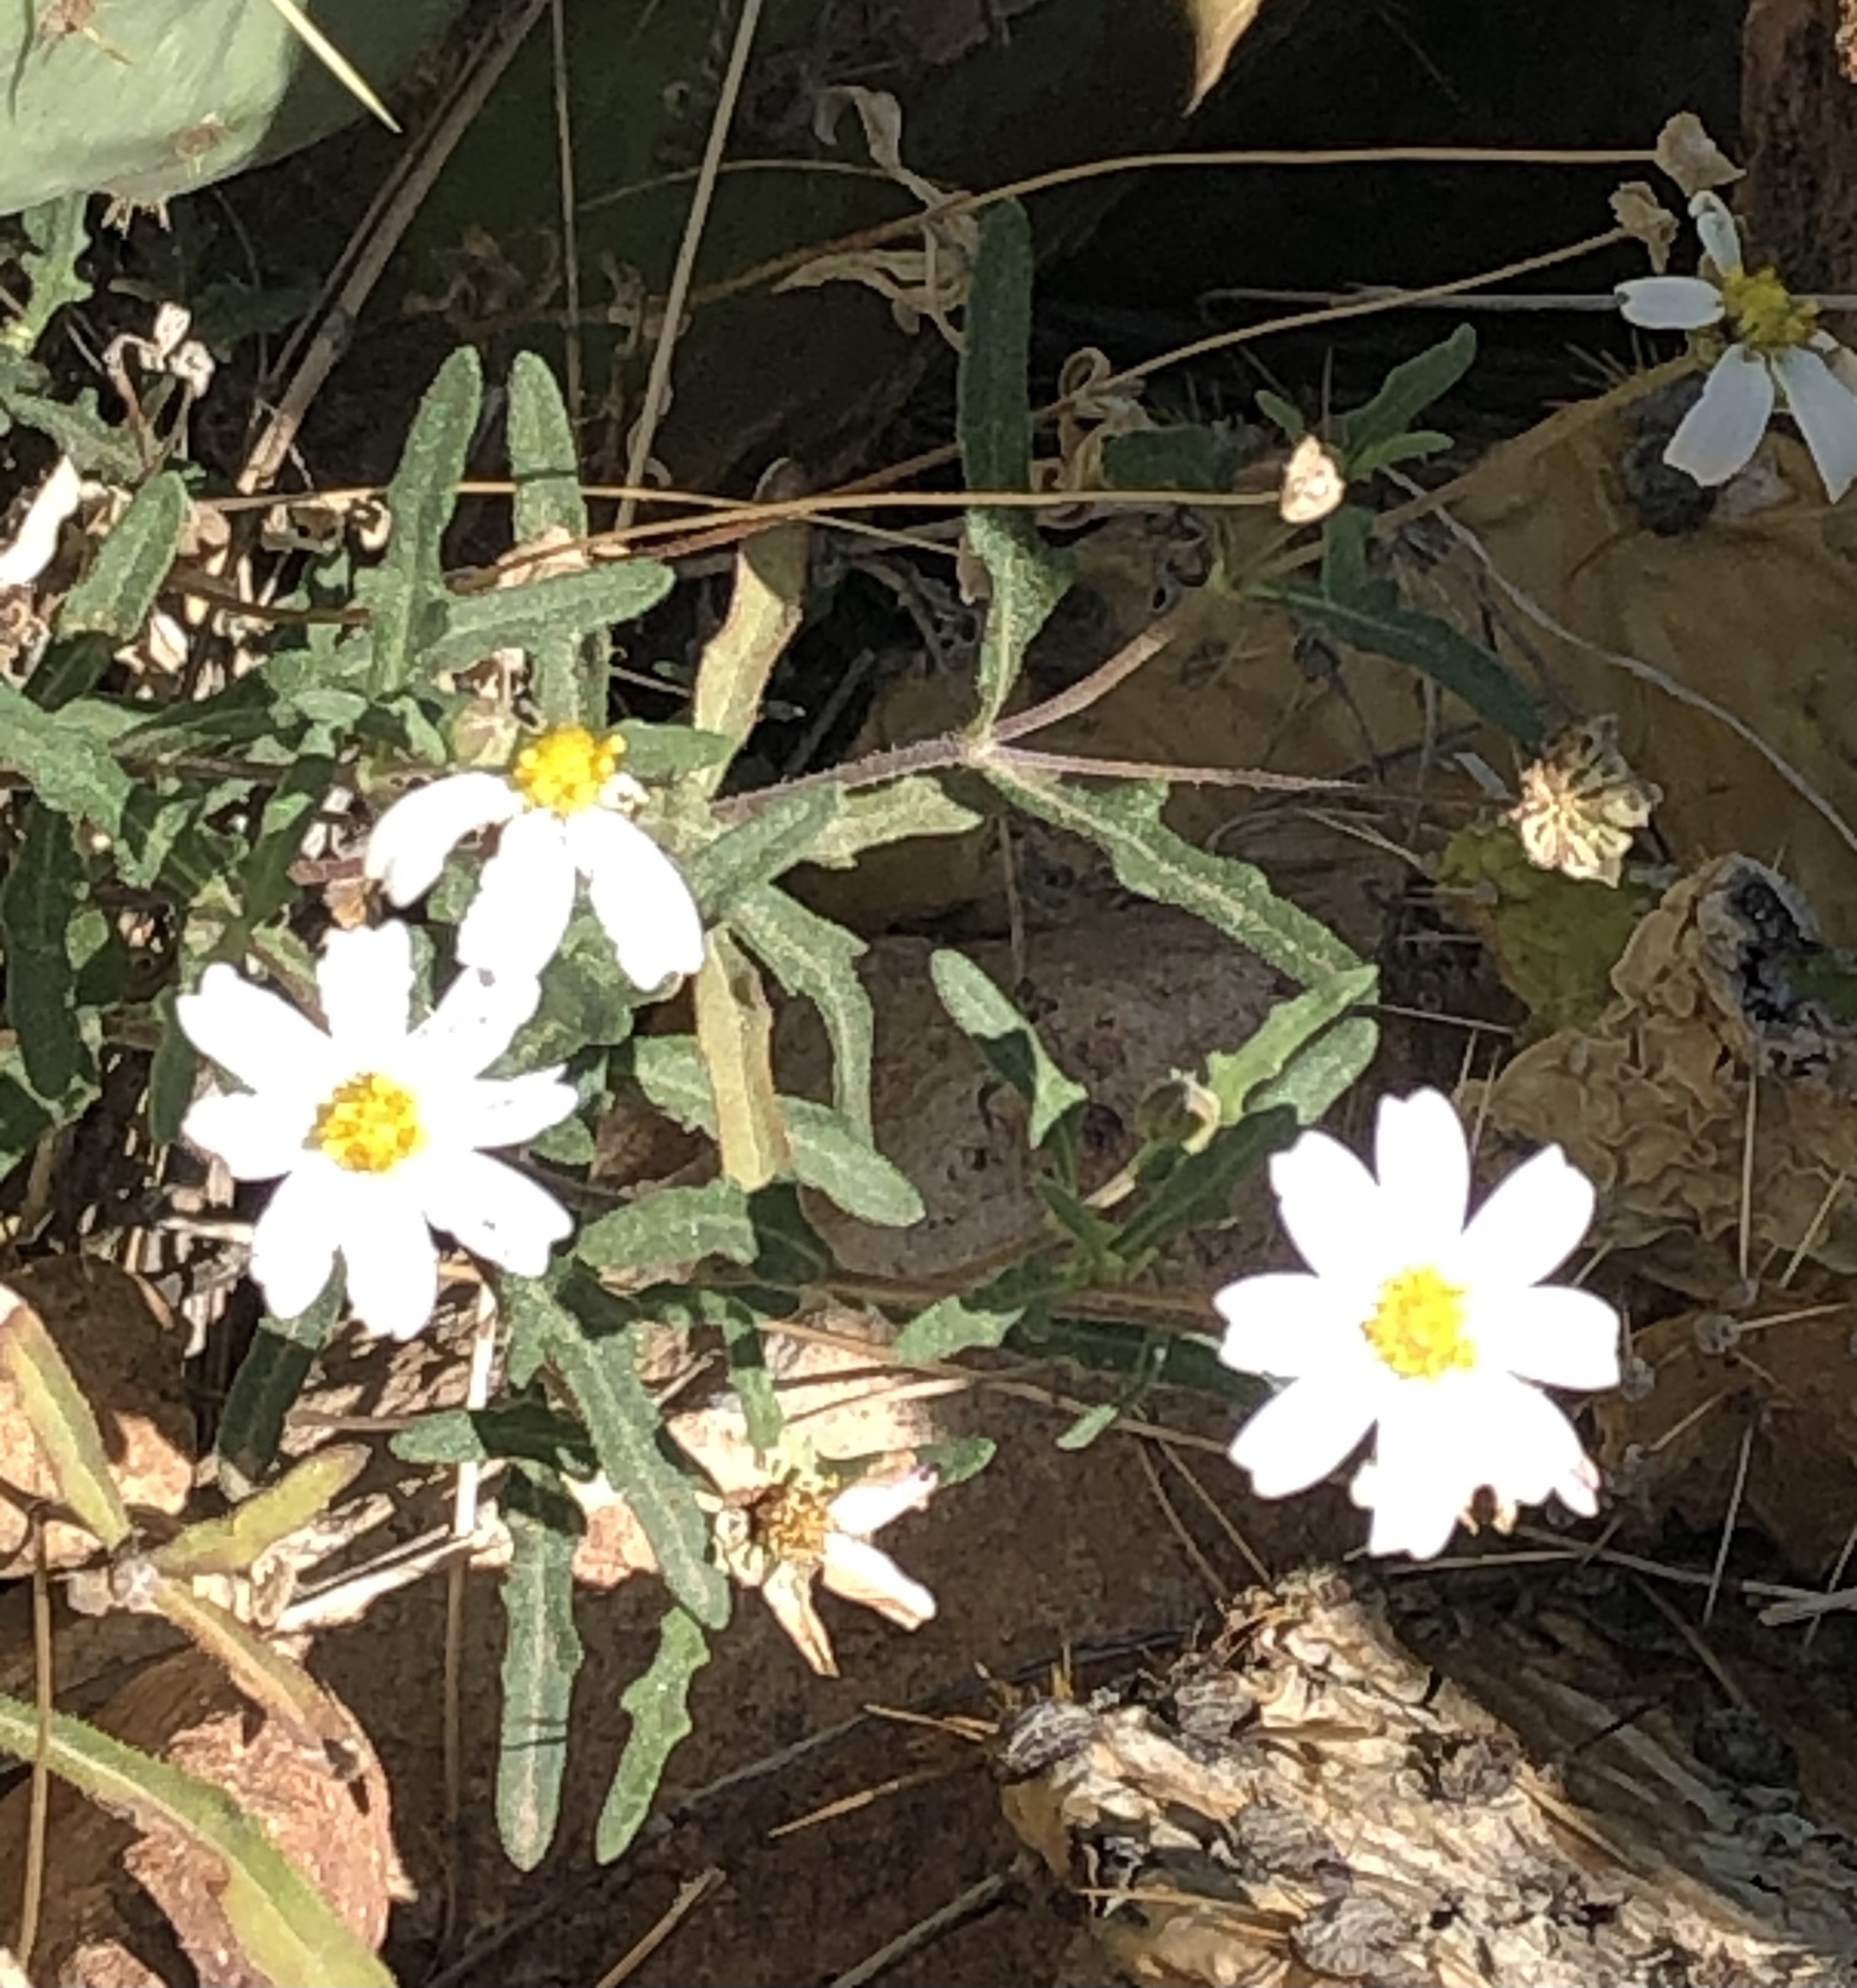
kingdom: Plantae
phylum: Tracheophyta
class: Magnoliopsida
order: Asterales
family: Asteraceae
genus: Melampodium
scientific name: Melampodium leucanthum
